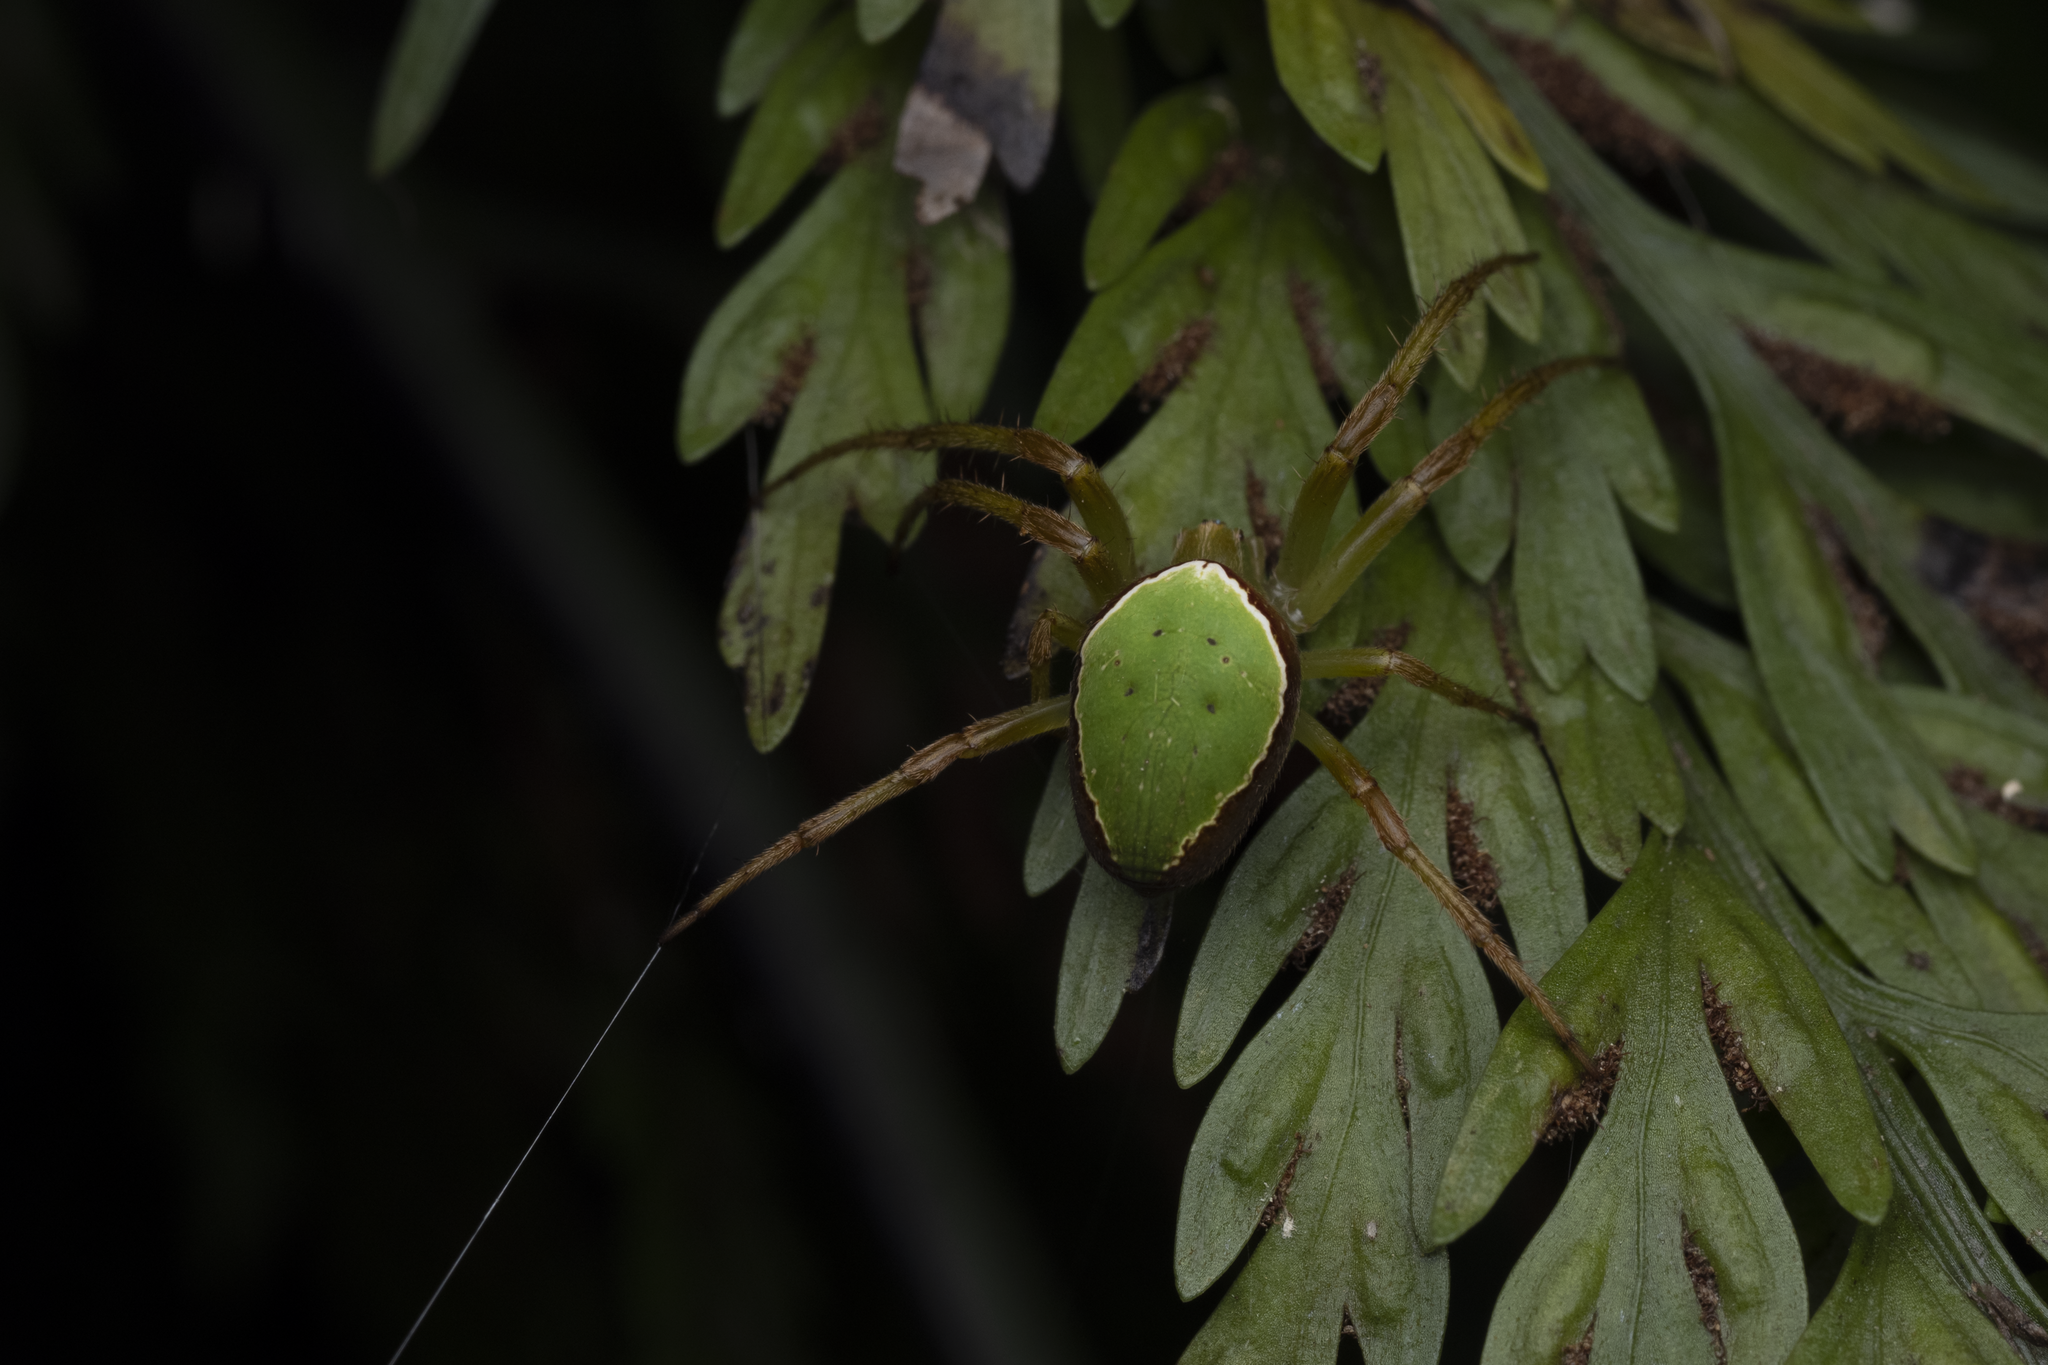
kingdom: Animalia
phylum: Arthropoda
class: Arachnida
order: Araneae
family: Araneidae
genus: Colaranea
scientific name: Colaranea viriditas
